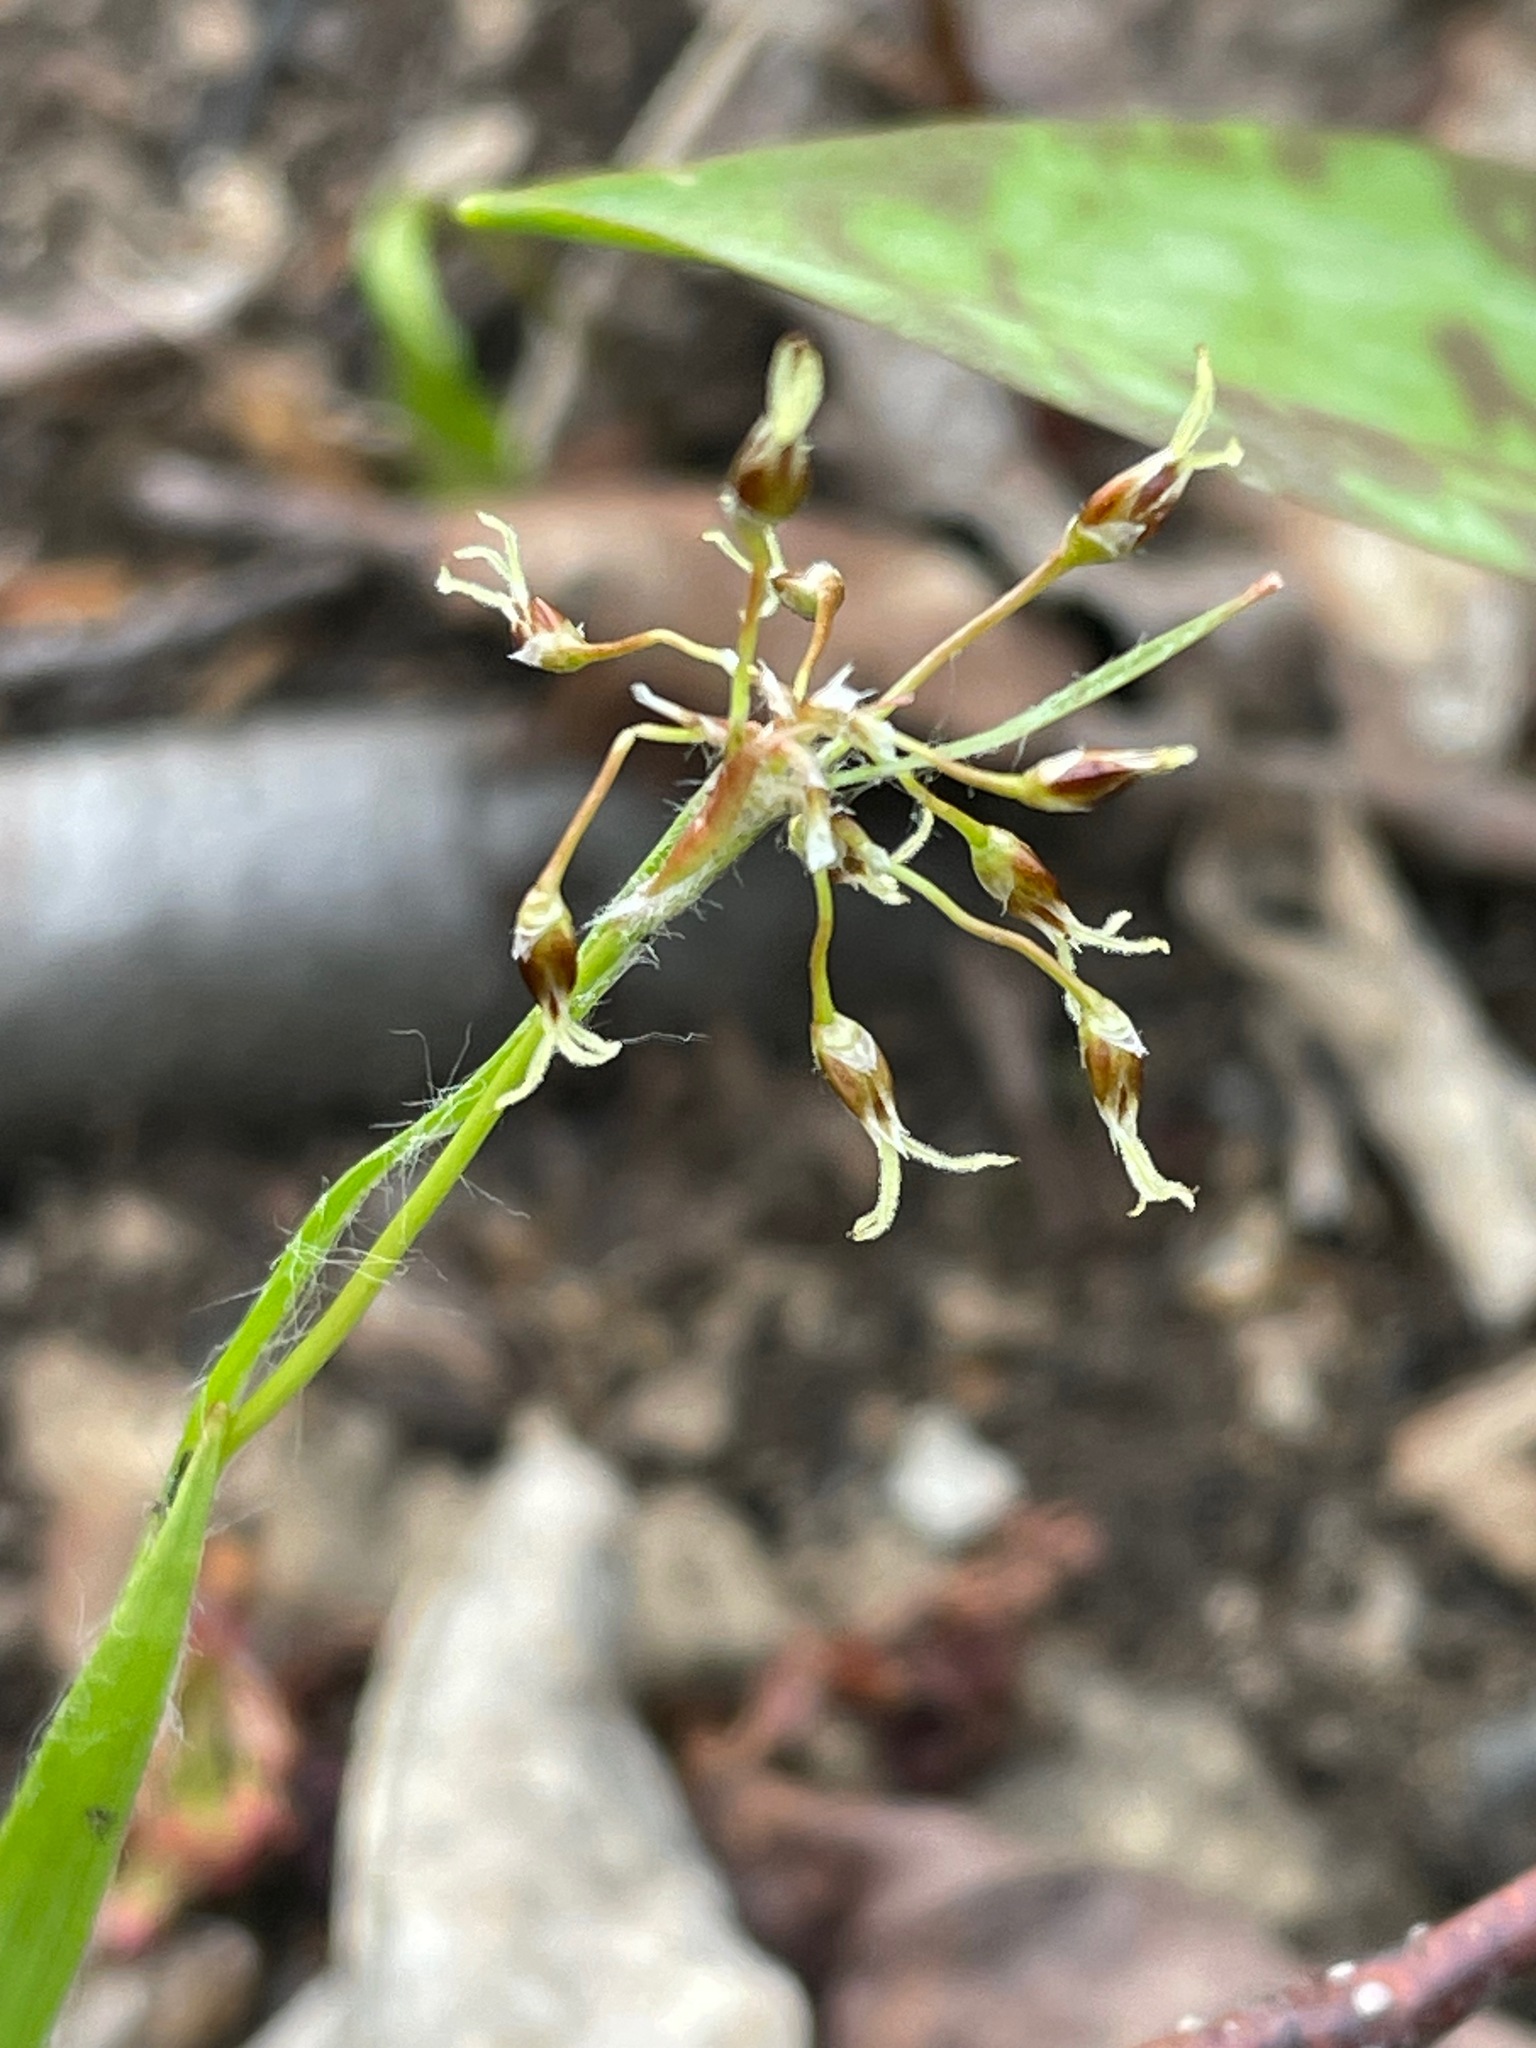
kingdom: Plantae
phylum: Tracheophyta
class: Liliopsida
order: Poales
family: Juncaceae
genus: Luzula
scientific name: Luzula acuminata
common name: Hairy woodrush
